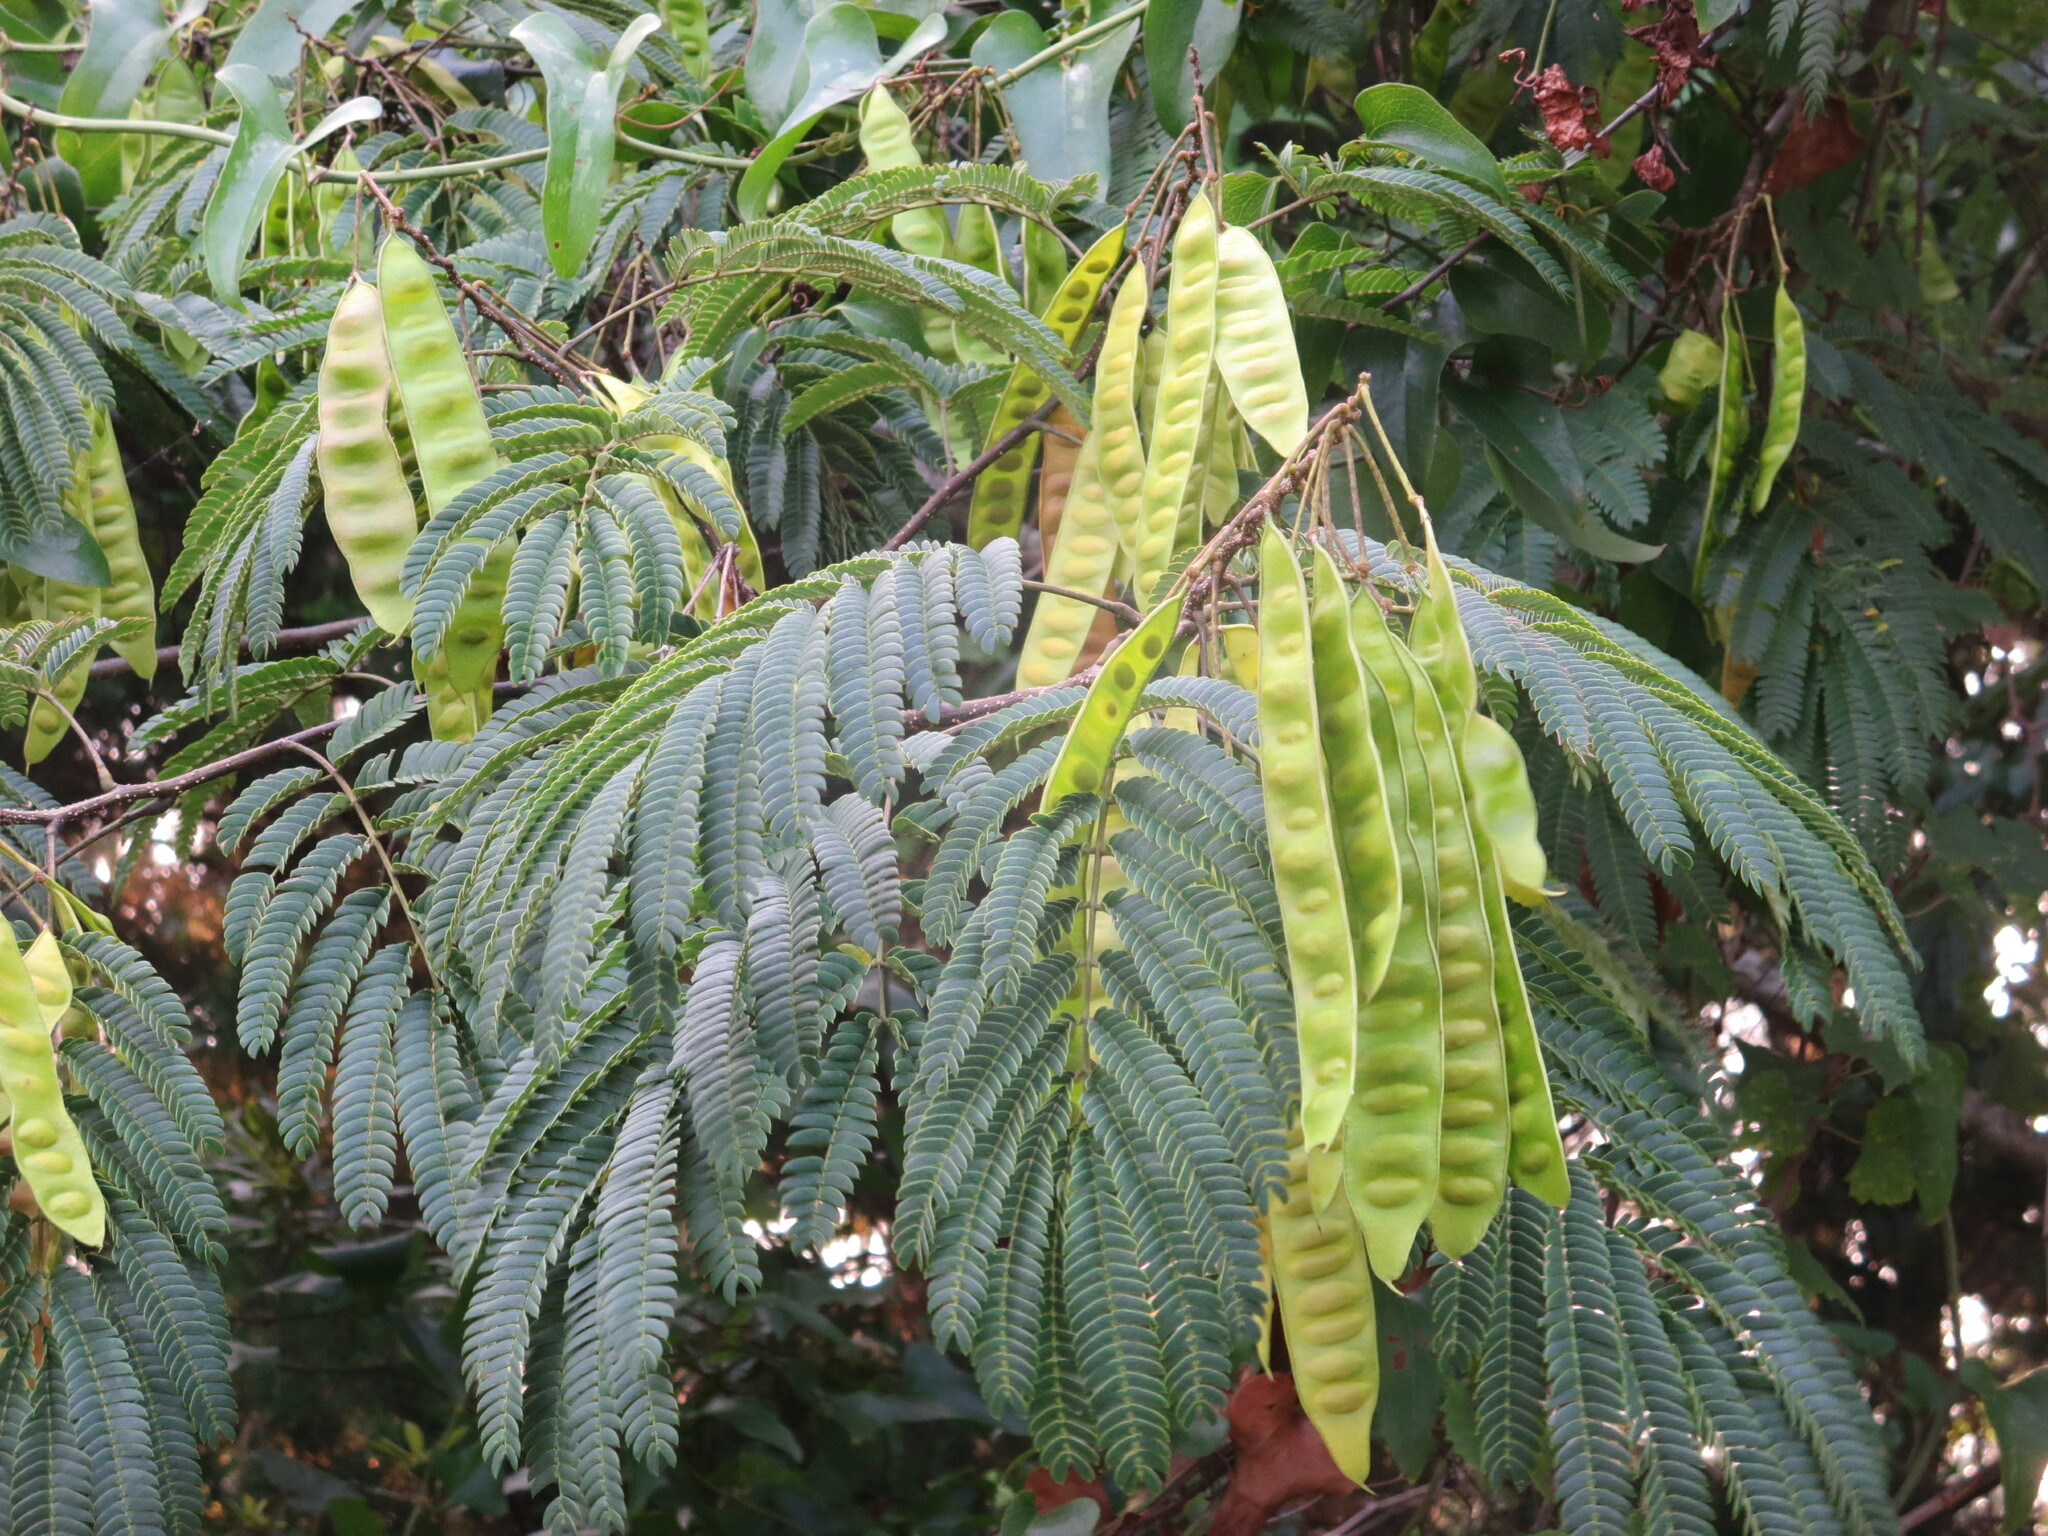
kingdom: Plantae
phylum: Tracheophyta
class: Magnoliopsida
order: Fabales
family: Fabaceae
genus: Albizia
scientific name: Albizia julibrissin
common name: Silktree
